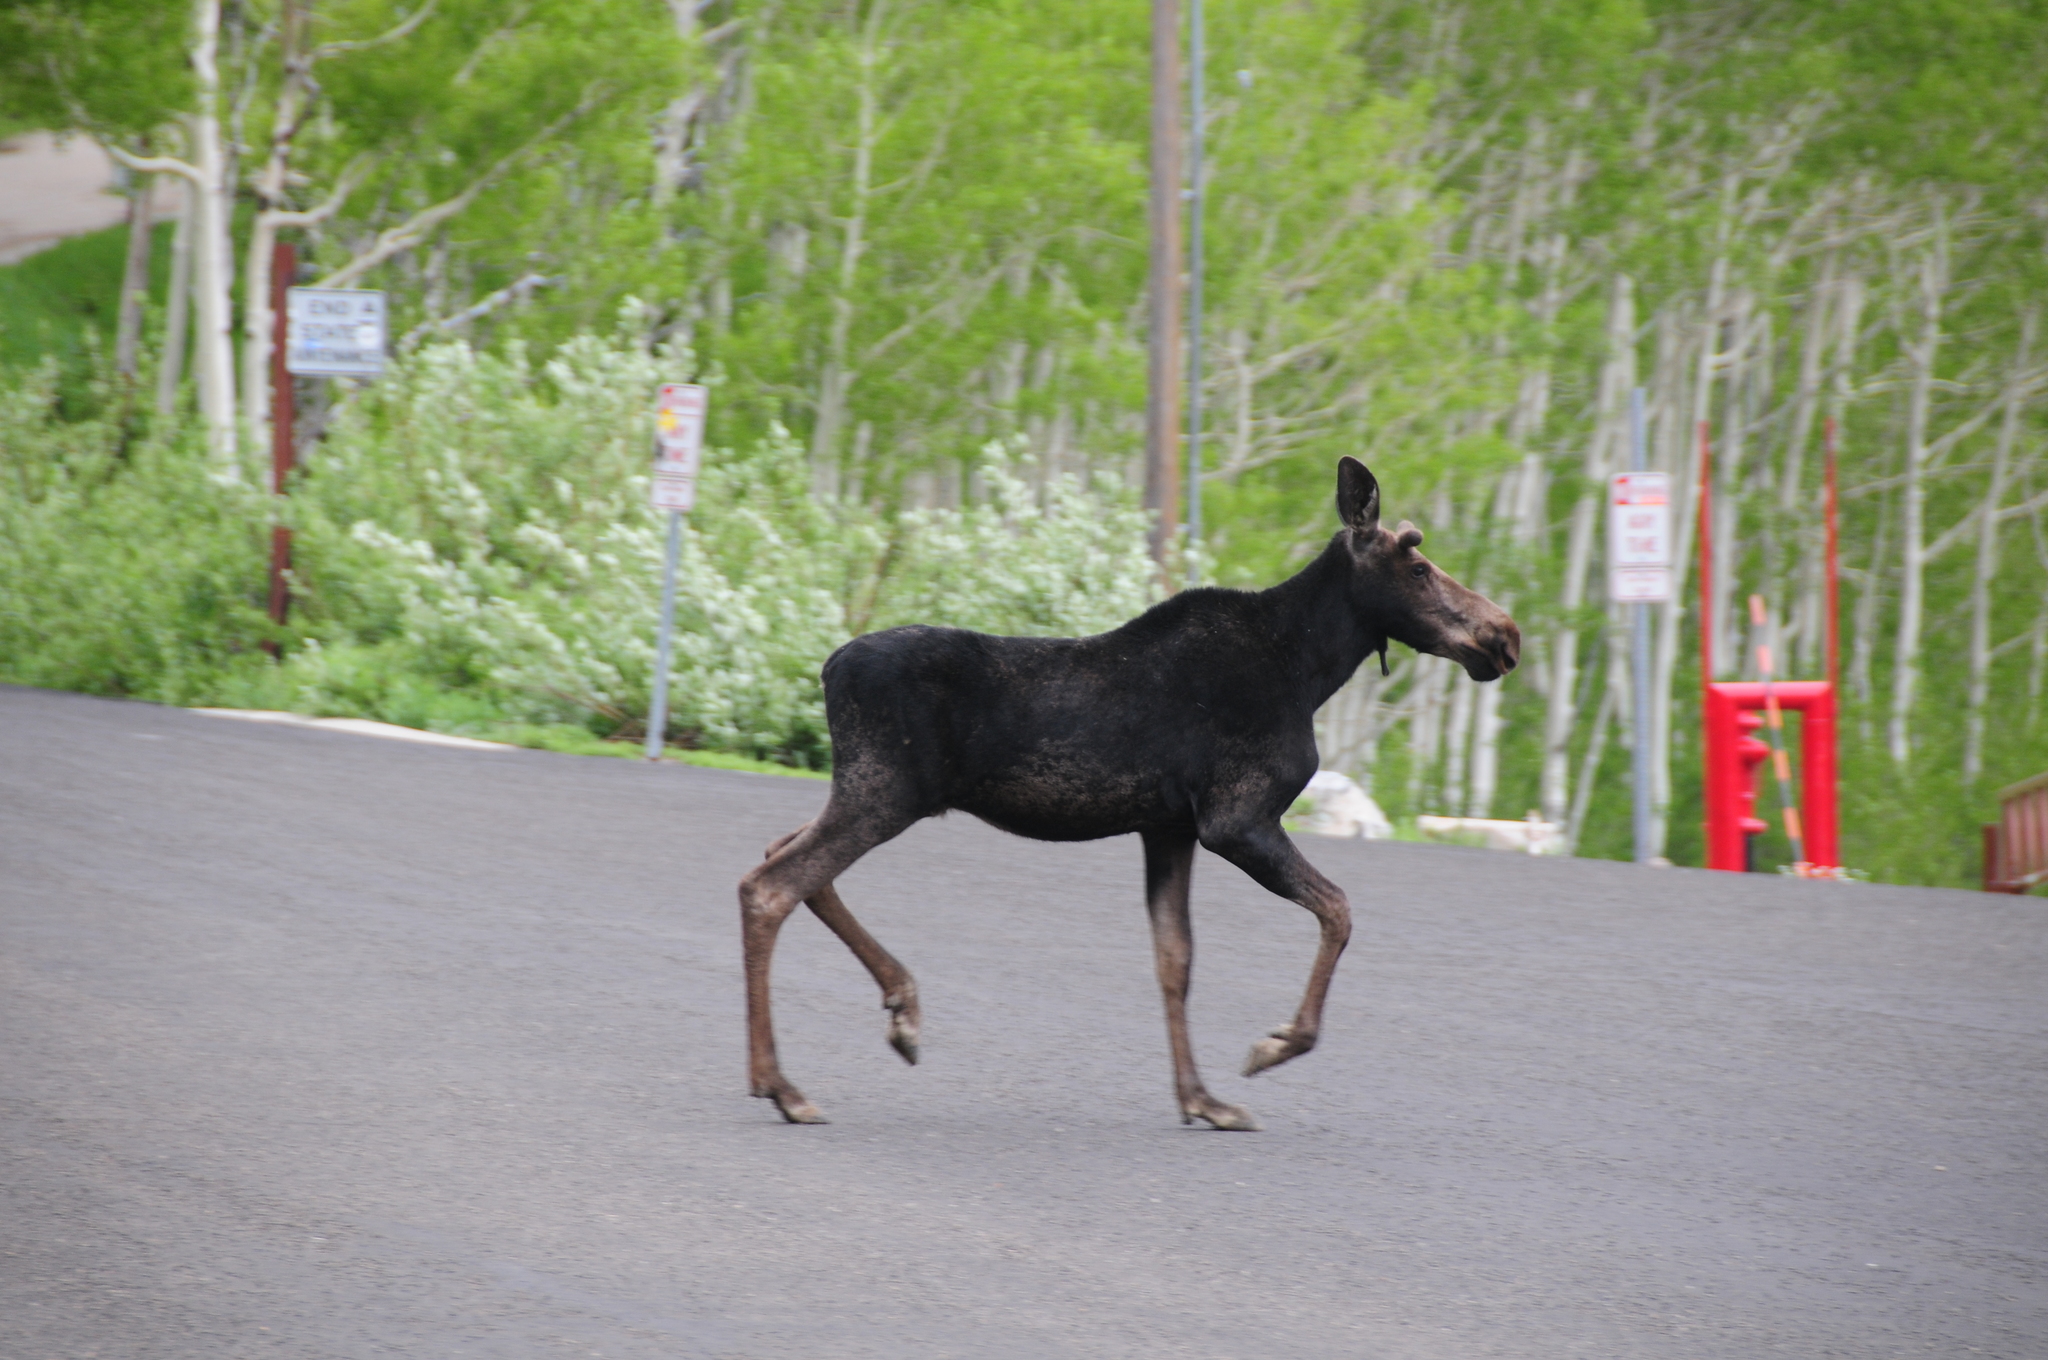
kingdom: Animalia
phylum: Chordata
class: Mammalia
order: Artiodactyla
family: Cervidae
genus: Alces
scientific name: Alces alces
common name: Moose
